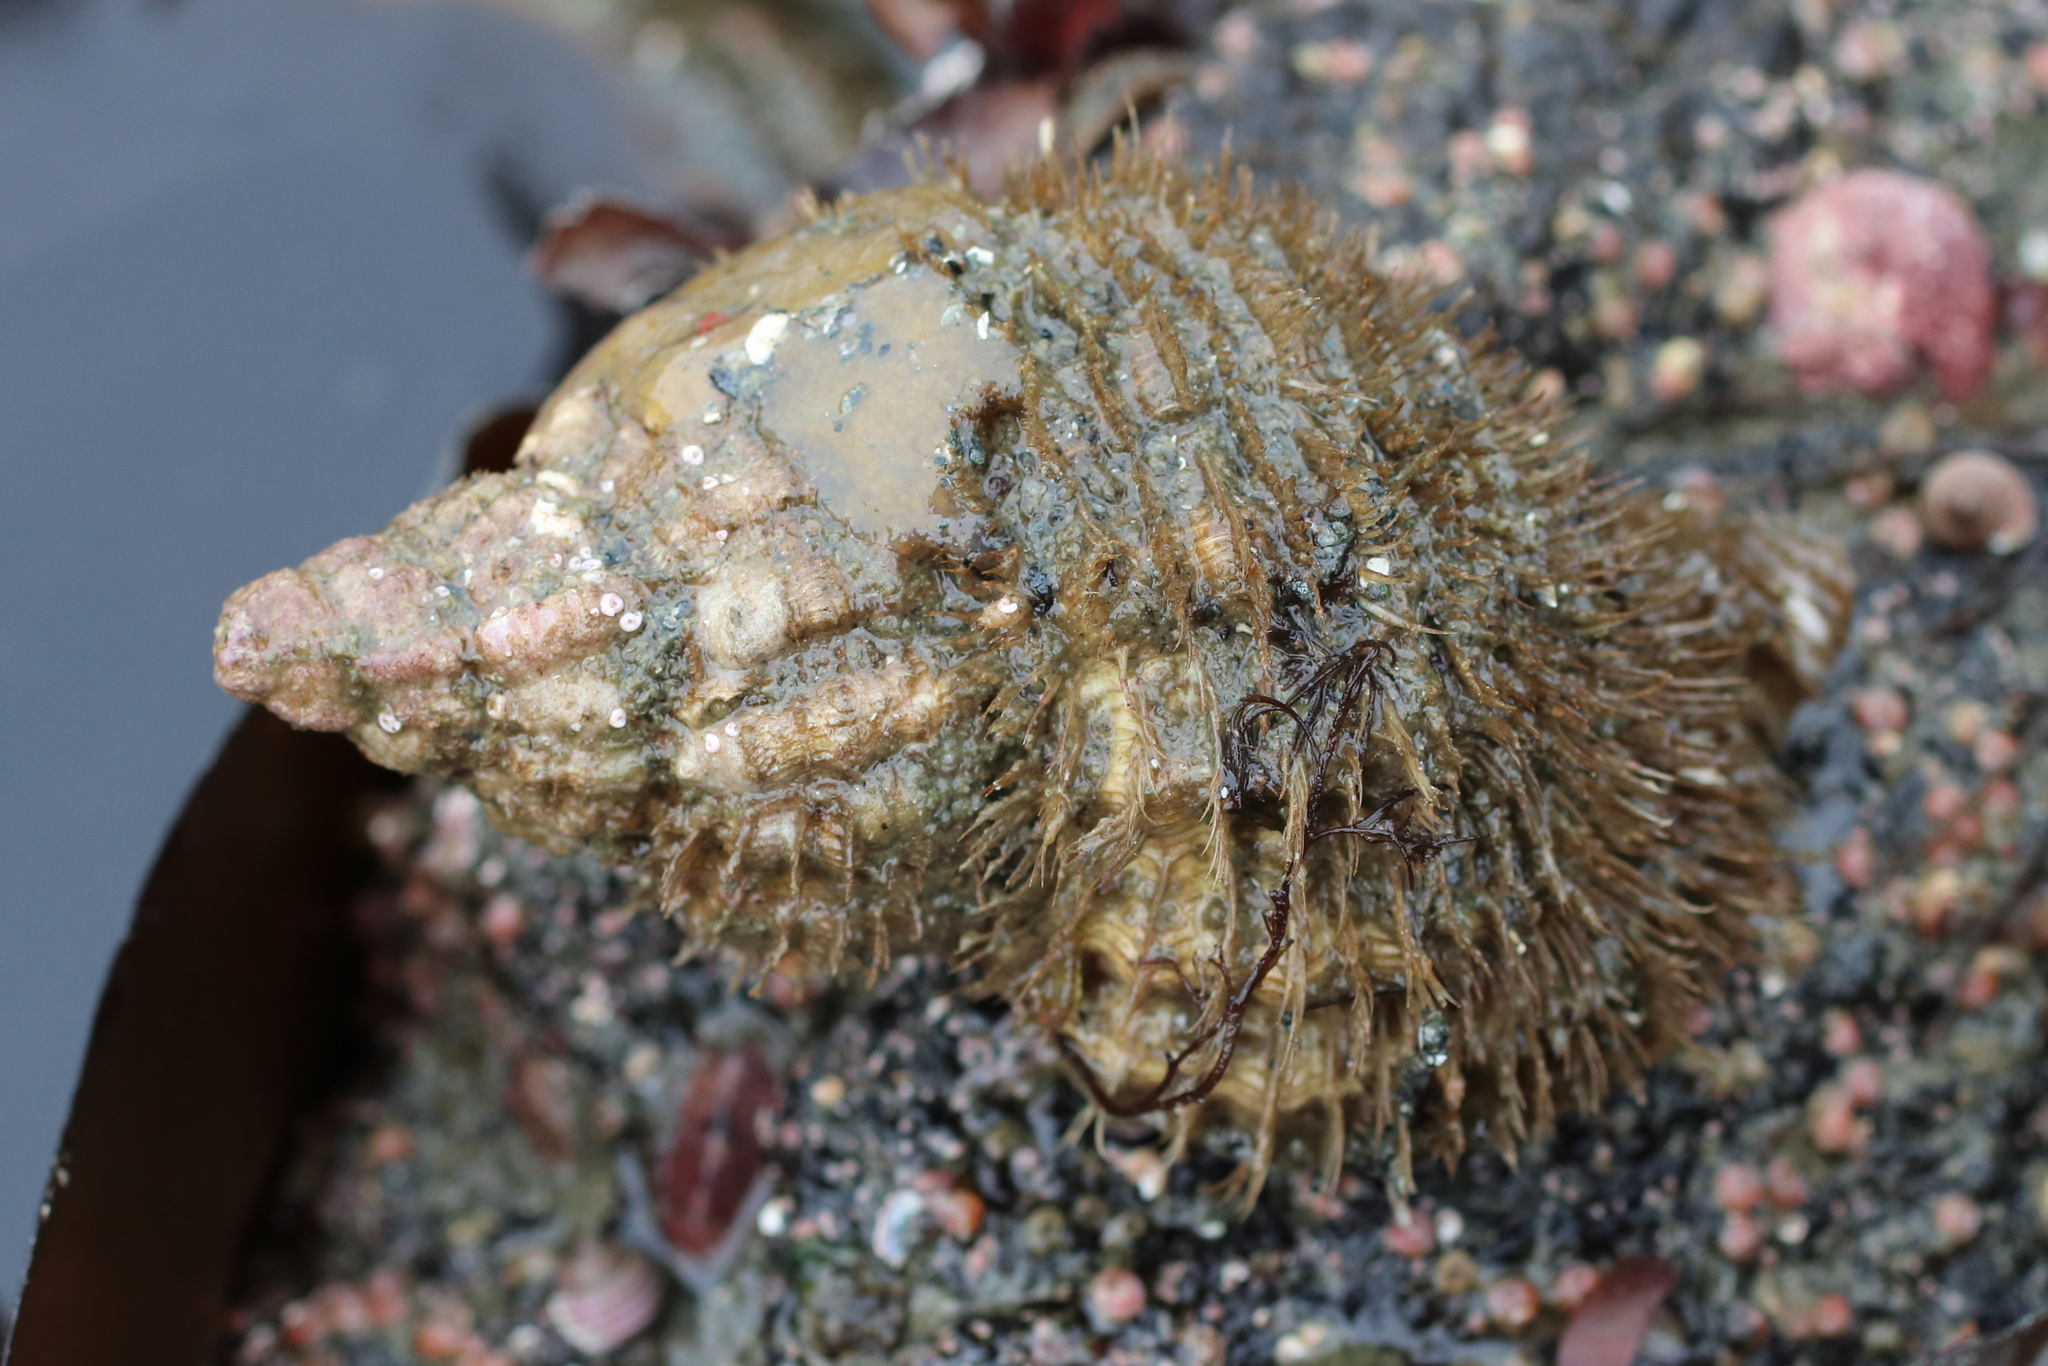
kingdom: Animalia
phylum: Mollusca
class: Gastropoda
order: Littorinimorpha
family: Cymatiidae
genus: Fusitriton
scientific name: Fusitriton oregonensis
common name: Oregon hairy triton
